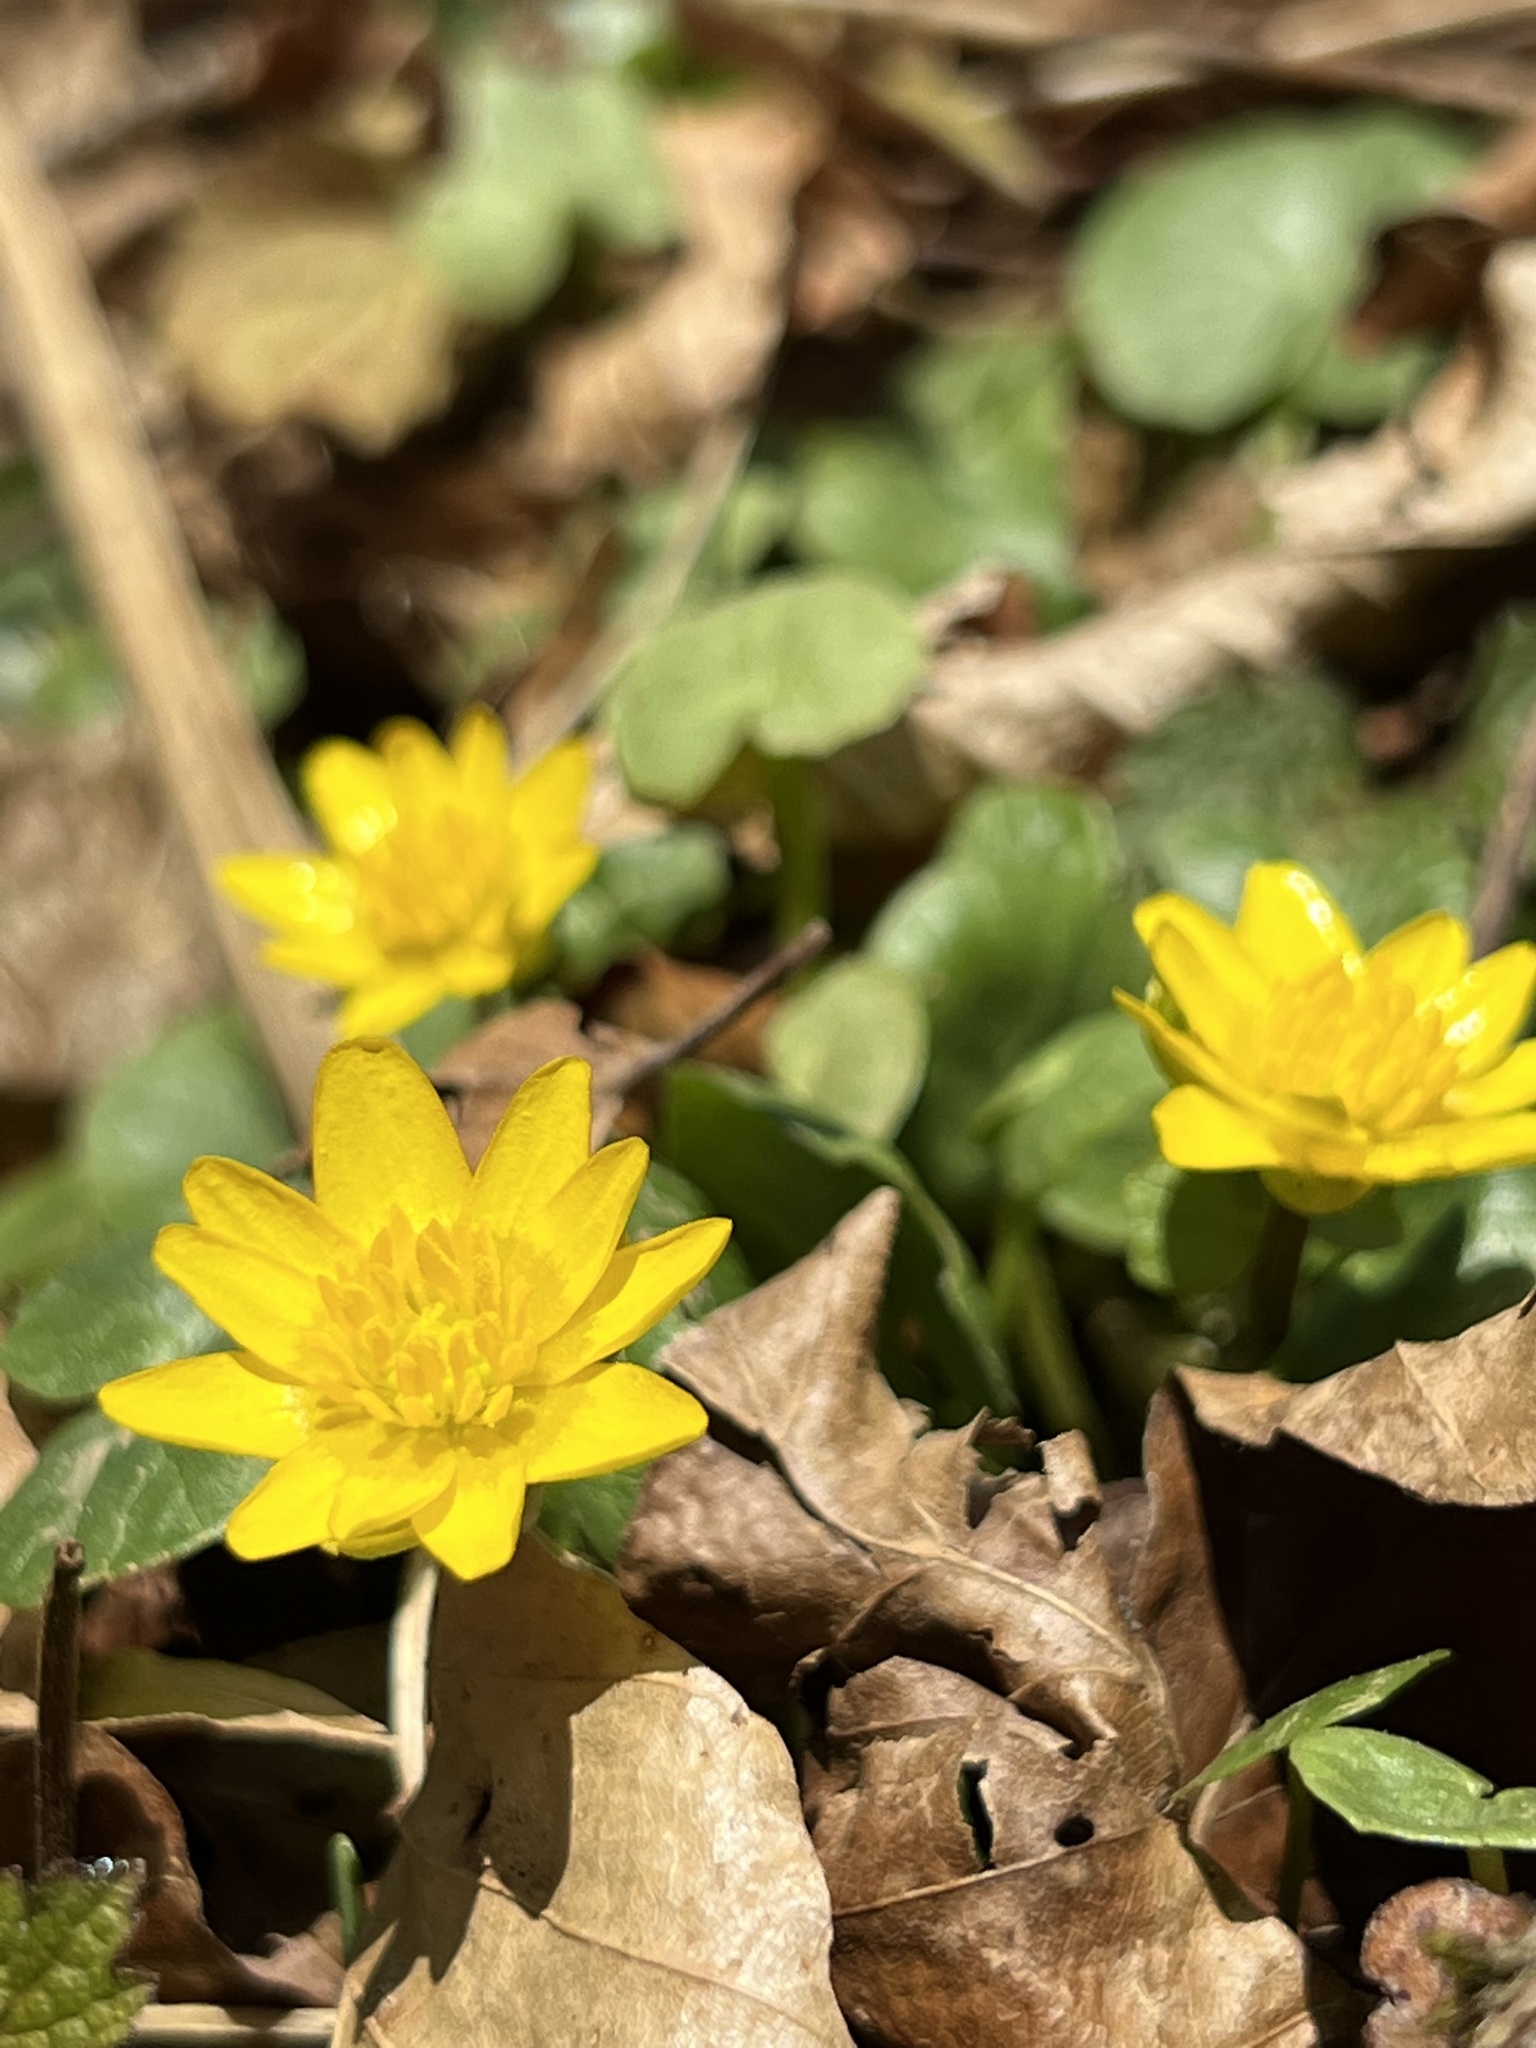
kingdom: Plantae
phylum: Tracheophyta
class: Magnoliopsida
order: Ranunculales
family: Ranunculaceae
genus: Ficaria
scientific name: Ficaria verna
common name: Lesser celandine
